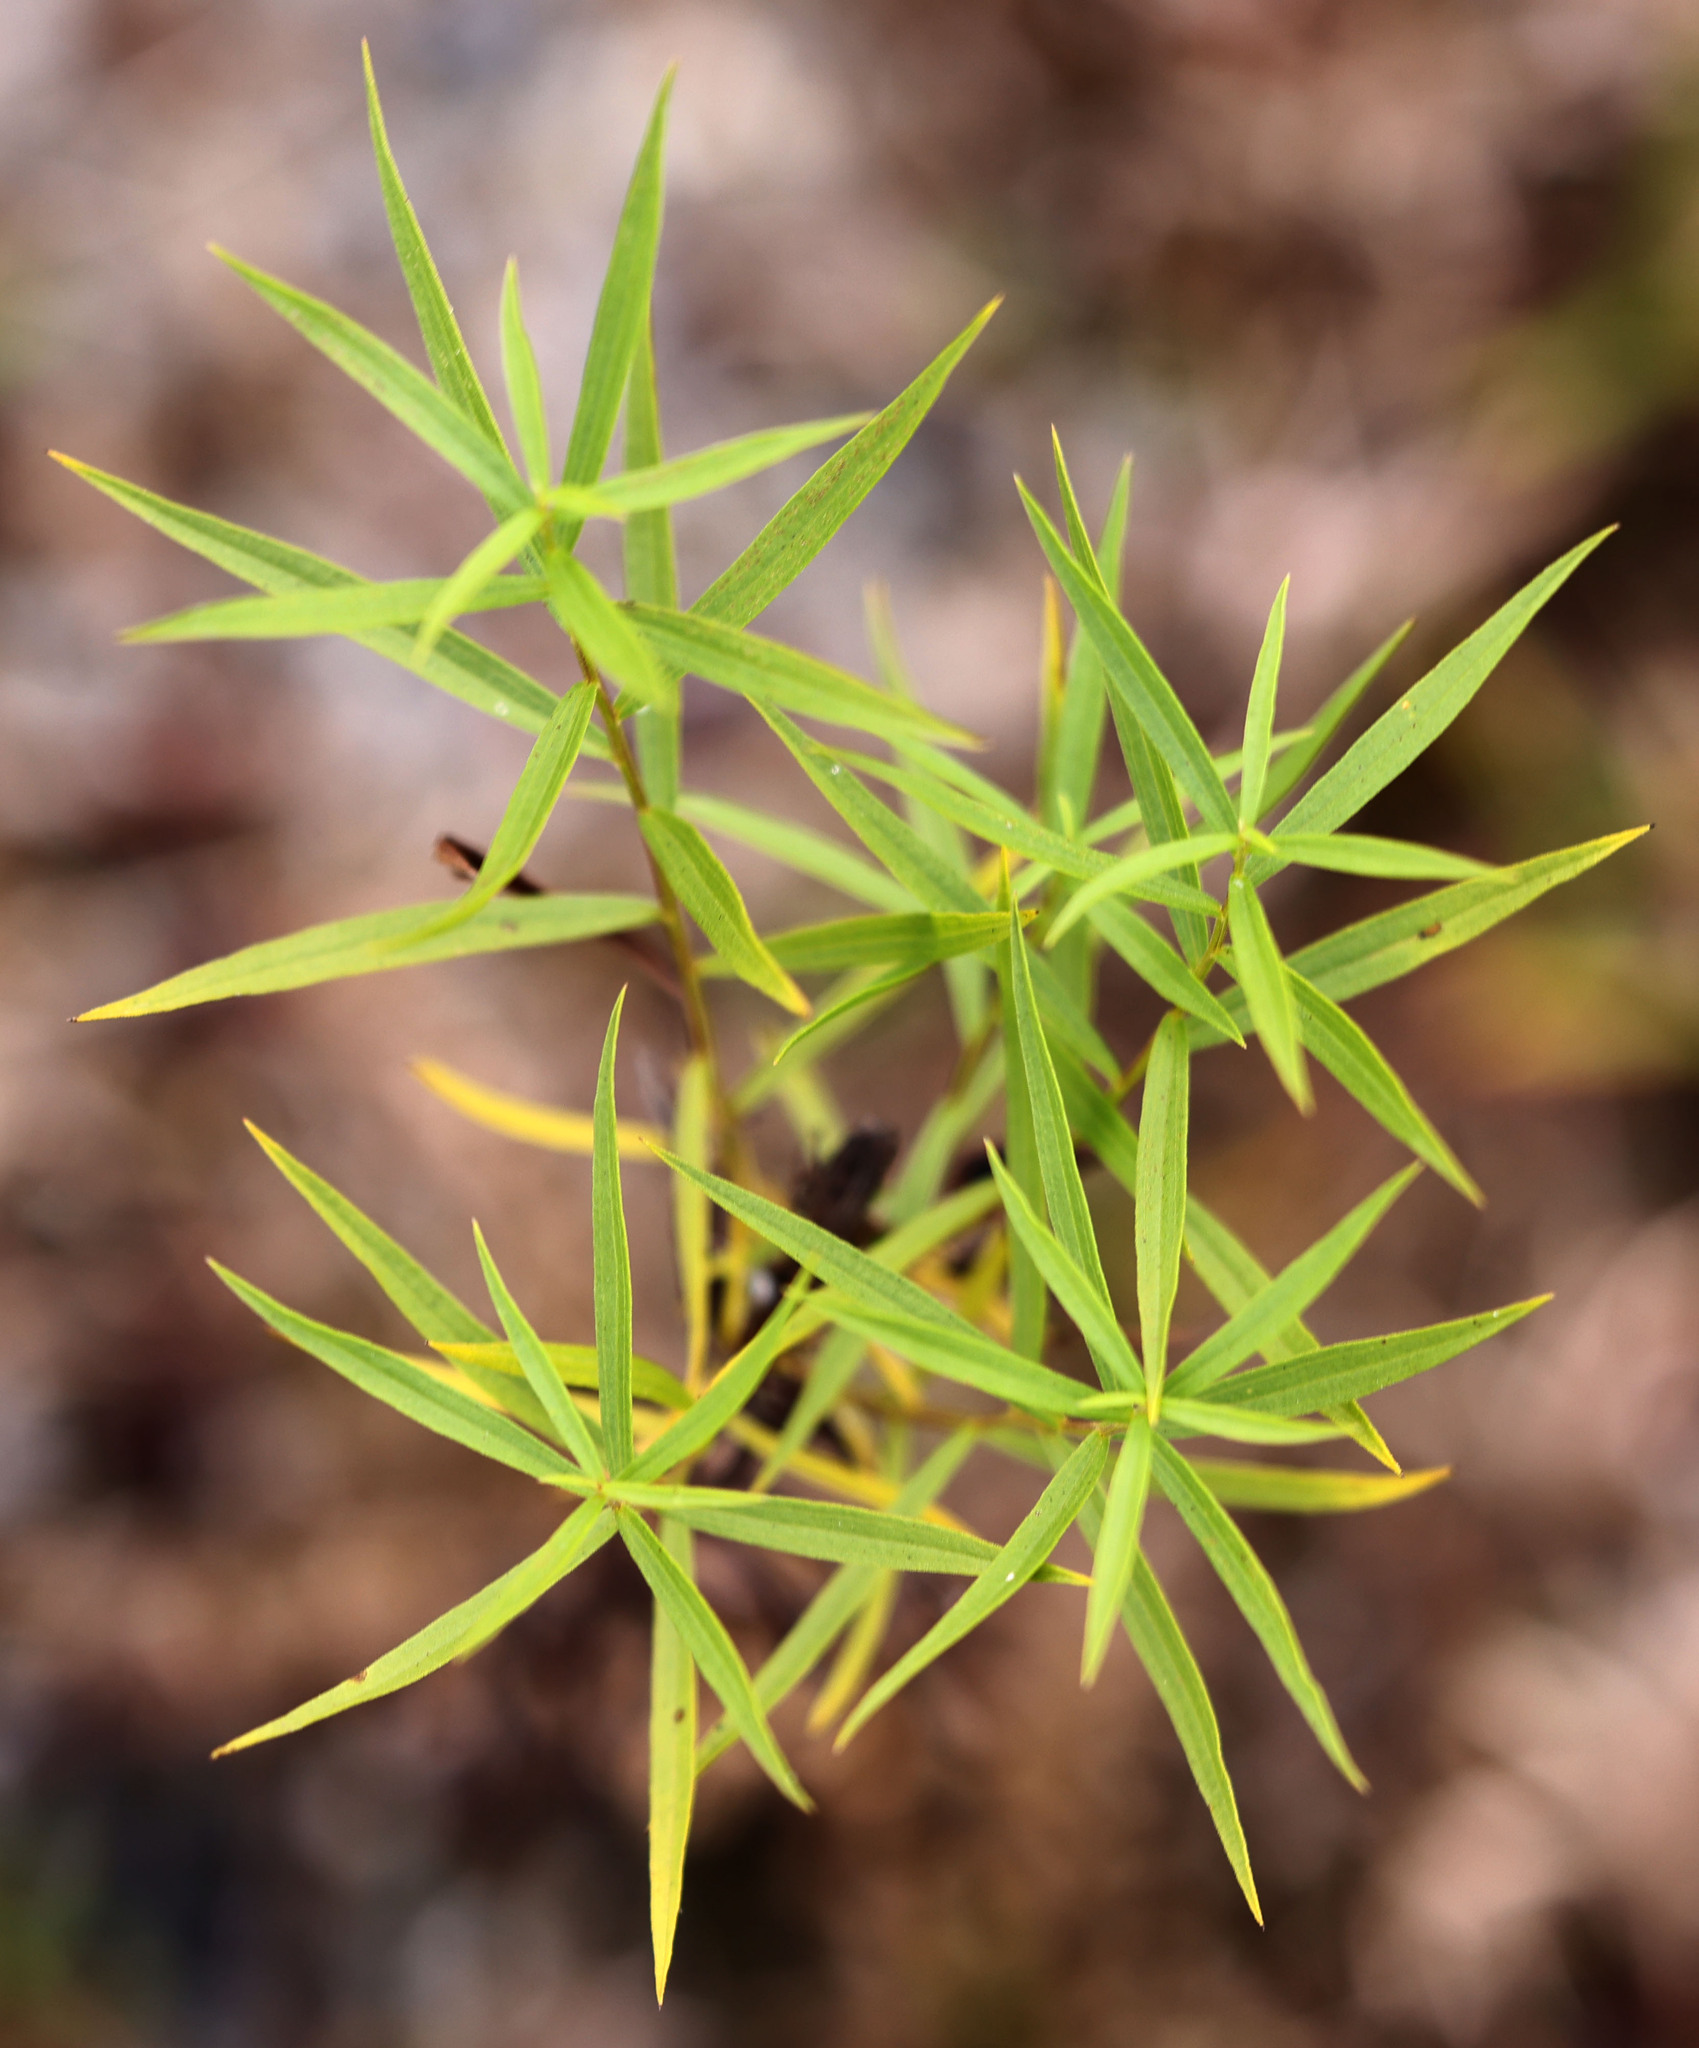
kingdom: Plantae
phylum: Tracheophyta
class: Magnoliopsida
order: Asterales
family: Asteraceae
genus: Euthamia
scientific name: Euthamia graminifolia
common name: Common goldentop
